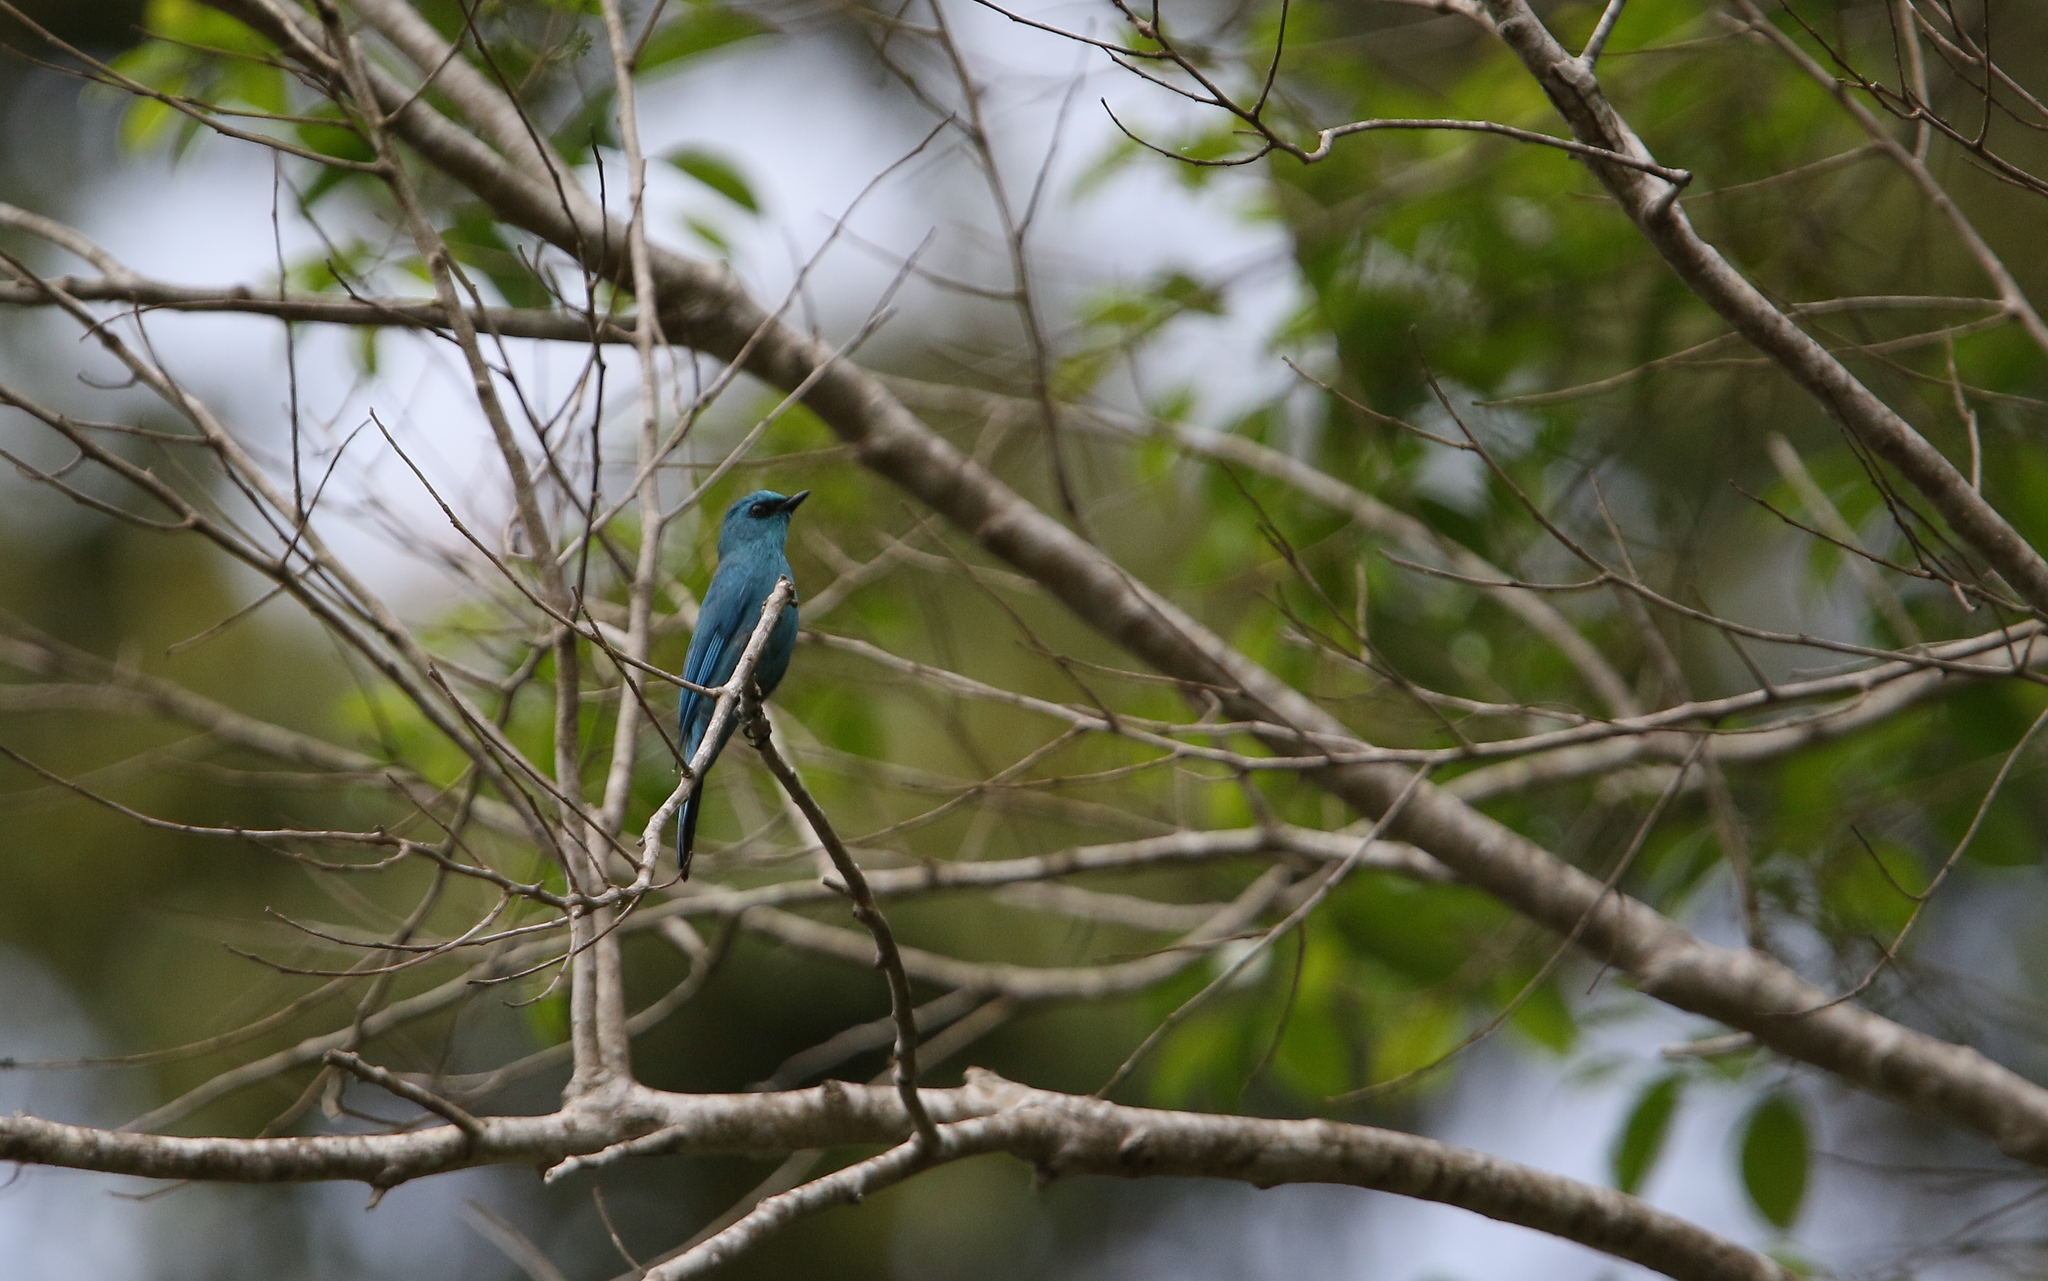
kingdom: Animalia
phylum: Chordata
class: Aves
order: Passeriformes
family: Muscicapidae
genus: Eumyias
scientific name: Eumyias thalassinus
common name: Verditer flycatcher
